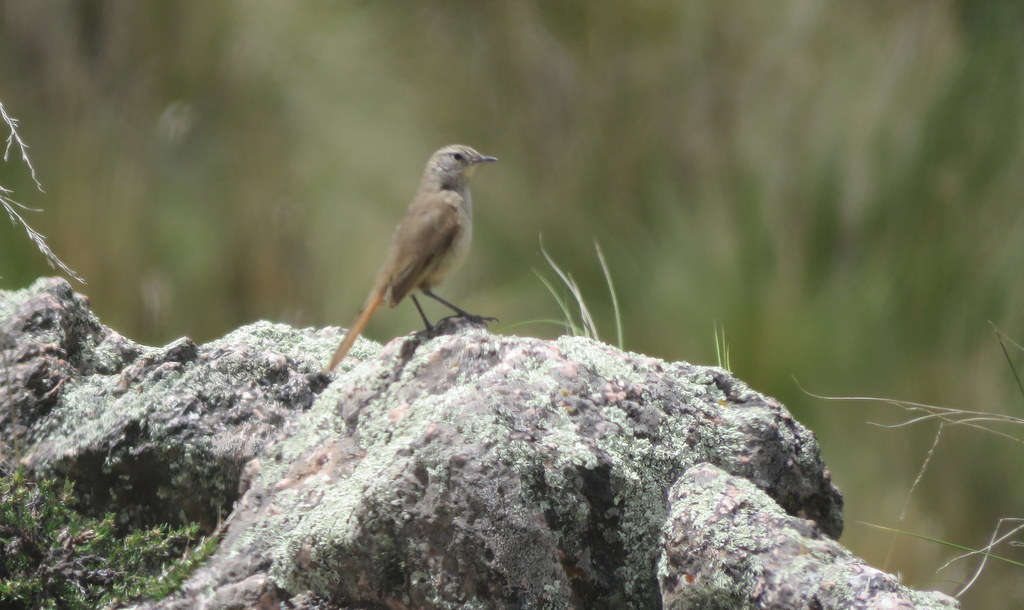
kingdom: Animalia
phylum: Chordata
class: Aves
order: Passeriformes
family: Furnariidae
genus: Asthenes
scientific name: Asthenes modesta
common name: Cordilleran canastero
